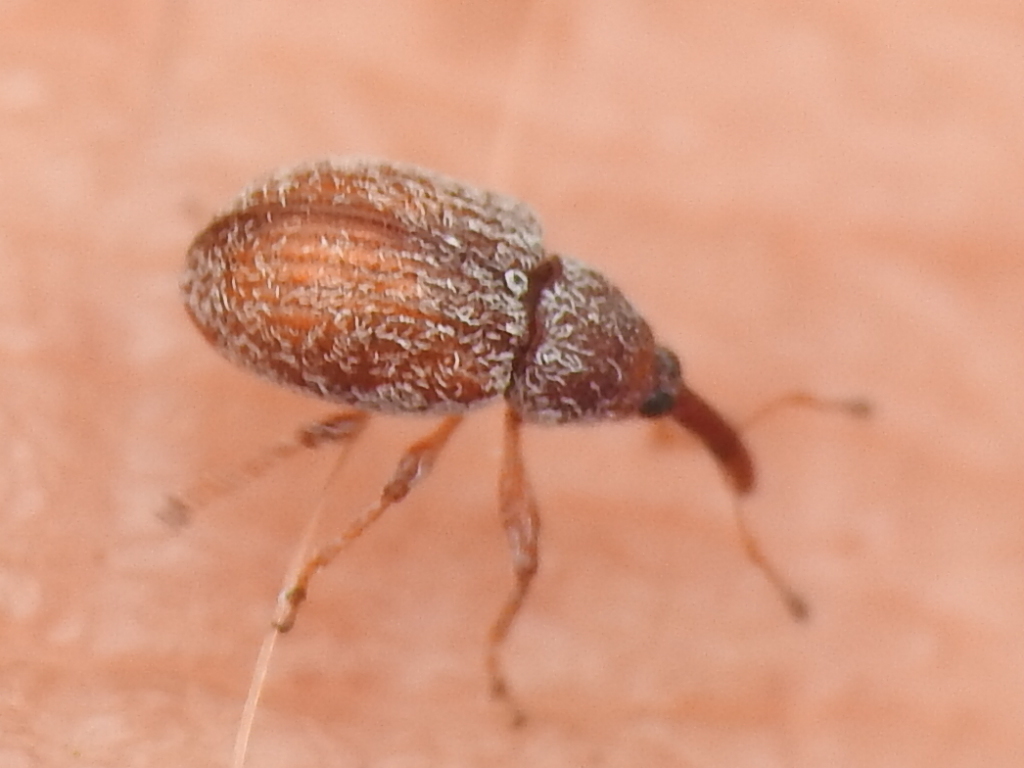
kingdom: Animalia
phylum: Arthropoda
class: Insecta
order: Coleoptera
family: Curculionidae
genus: Pseudanthonomus
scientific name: Pseudanthonomus tomentosulus
